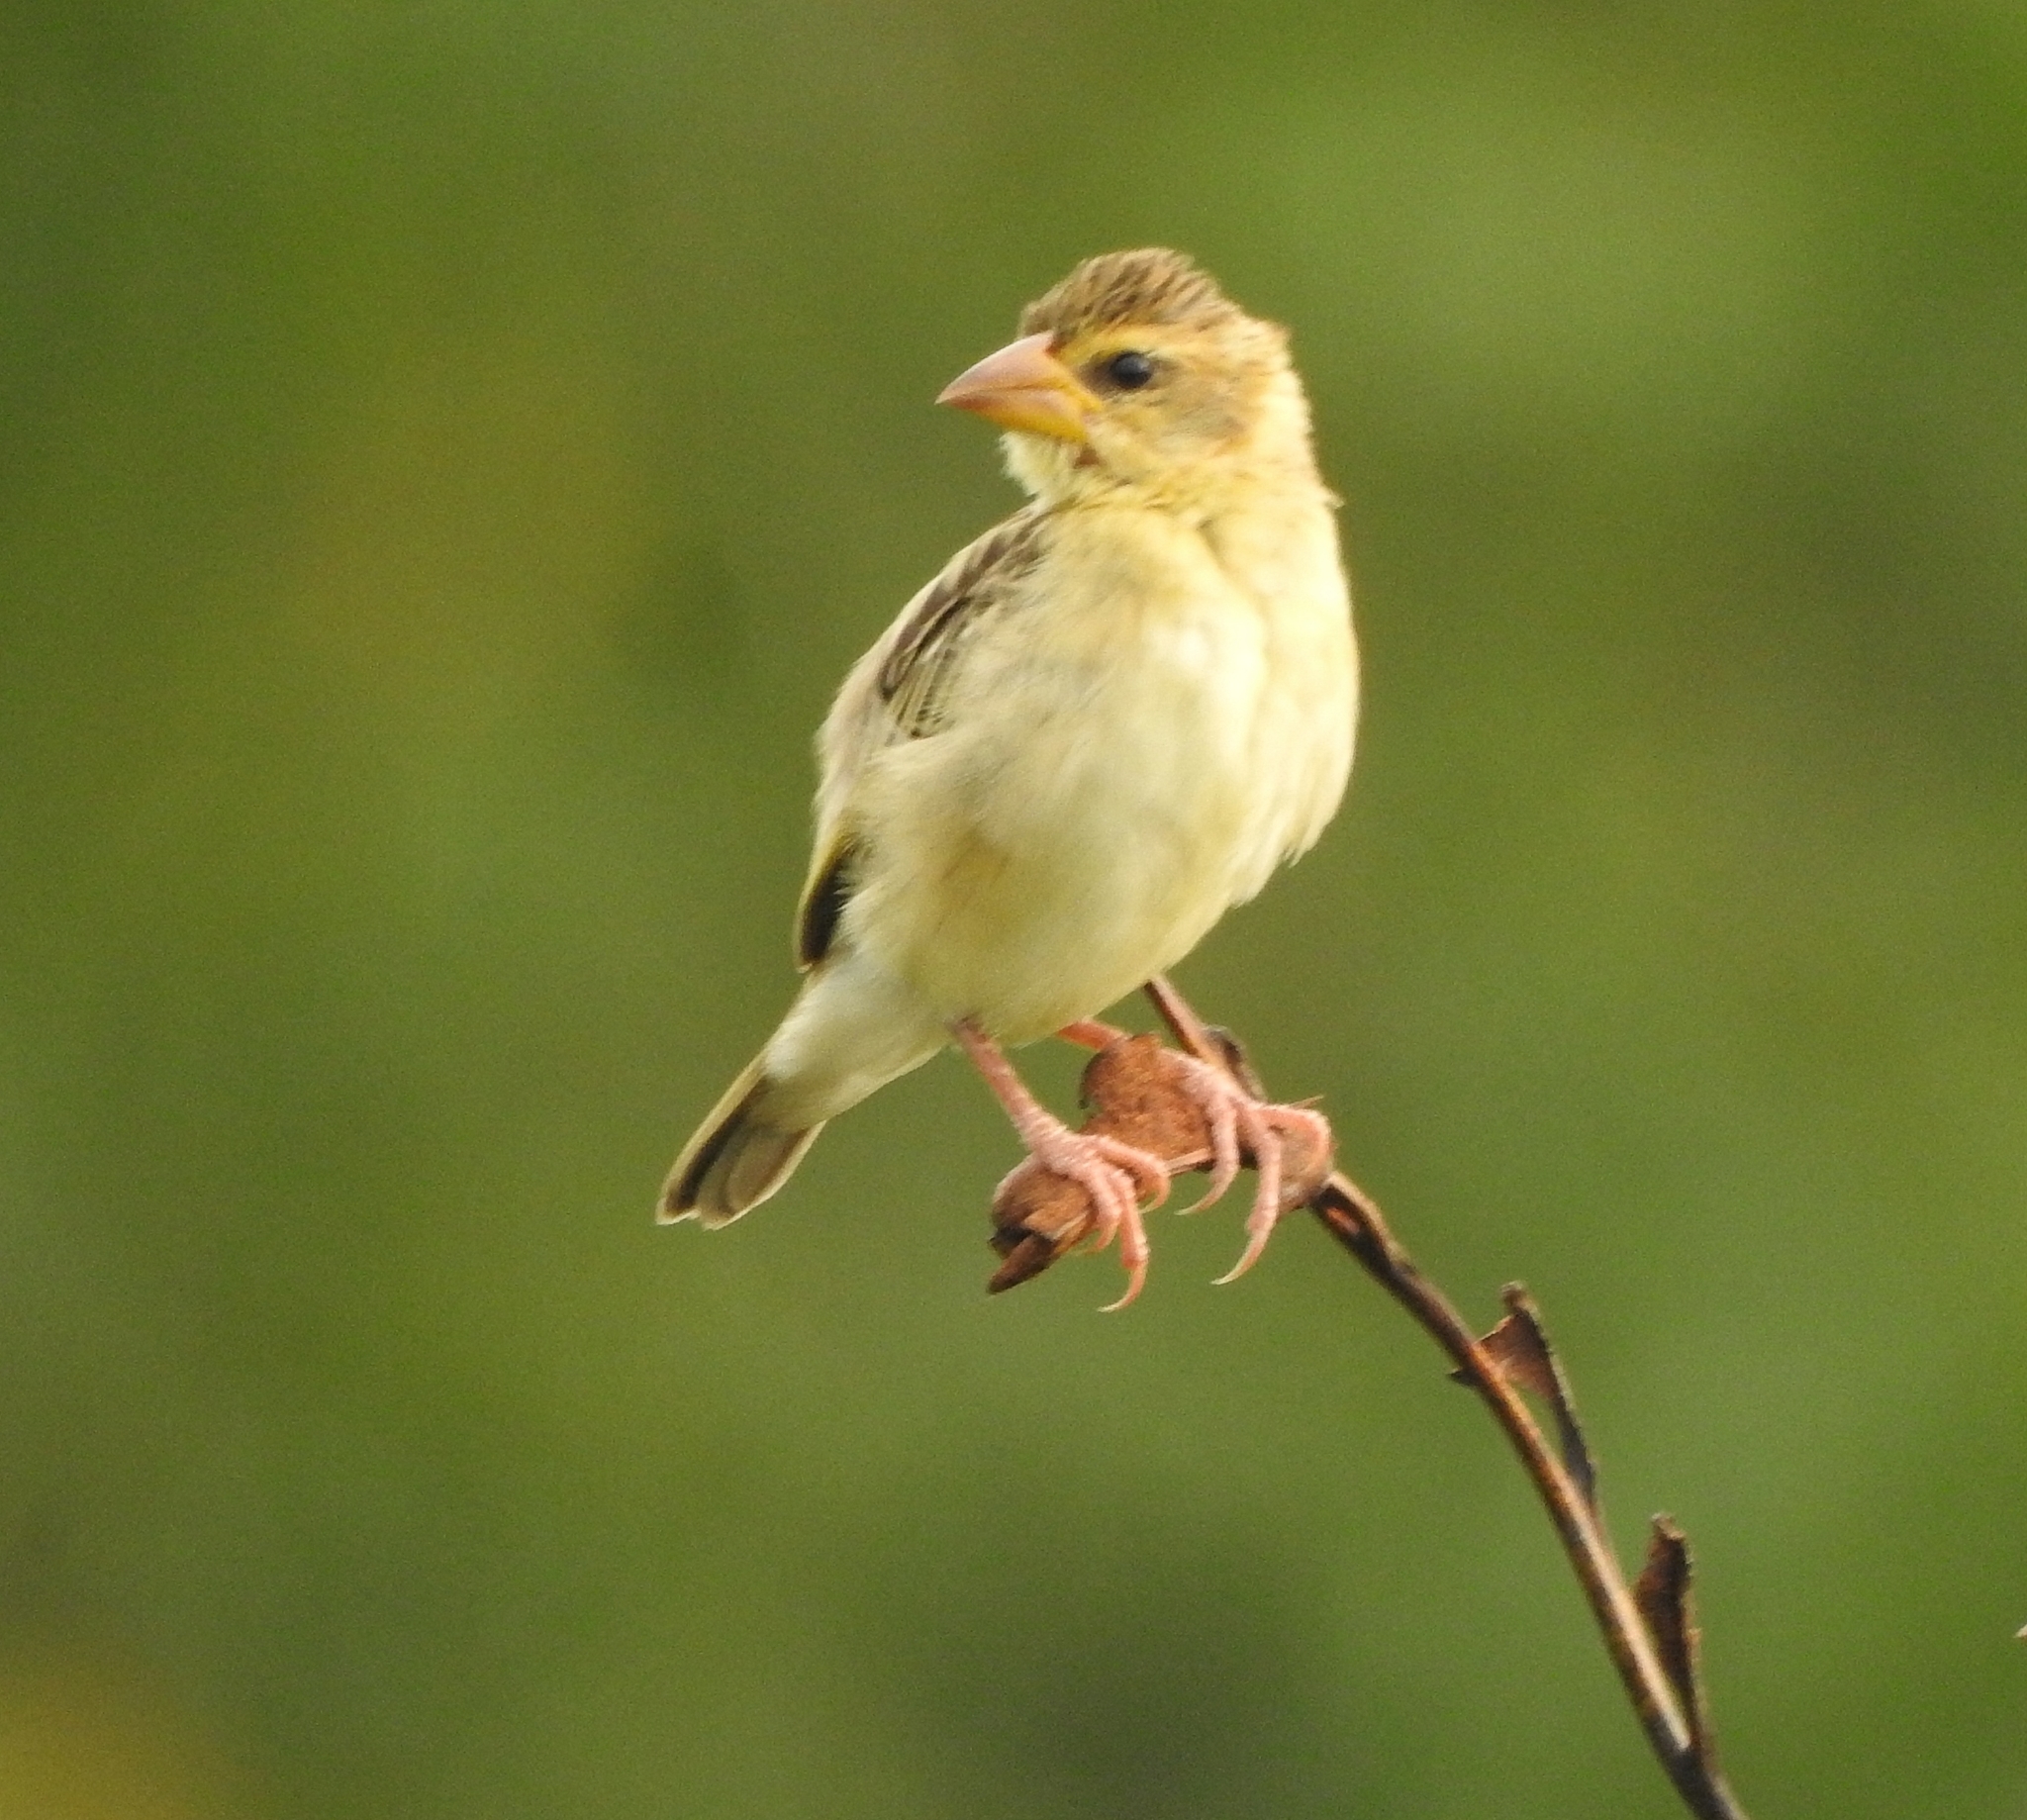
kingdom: Animalia
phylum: Chordata
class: Aves
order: Passeriformes
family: Ploceidae
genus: Ploceus
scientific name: Ploceus philippinus
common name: Baya weaver
